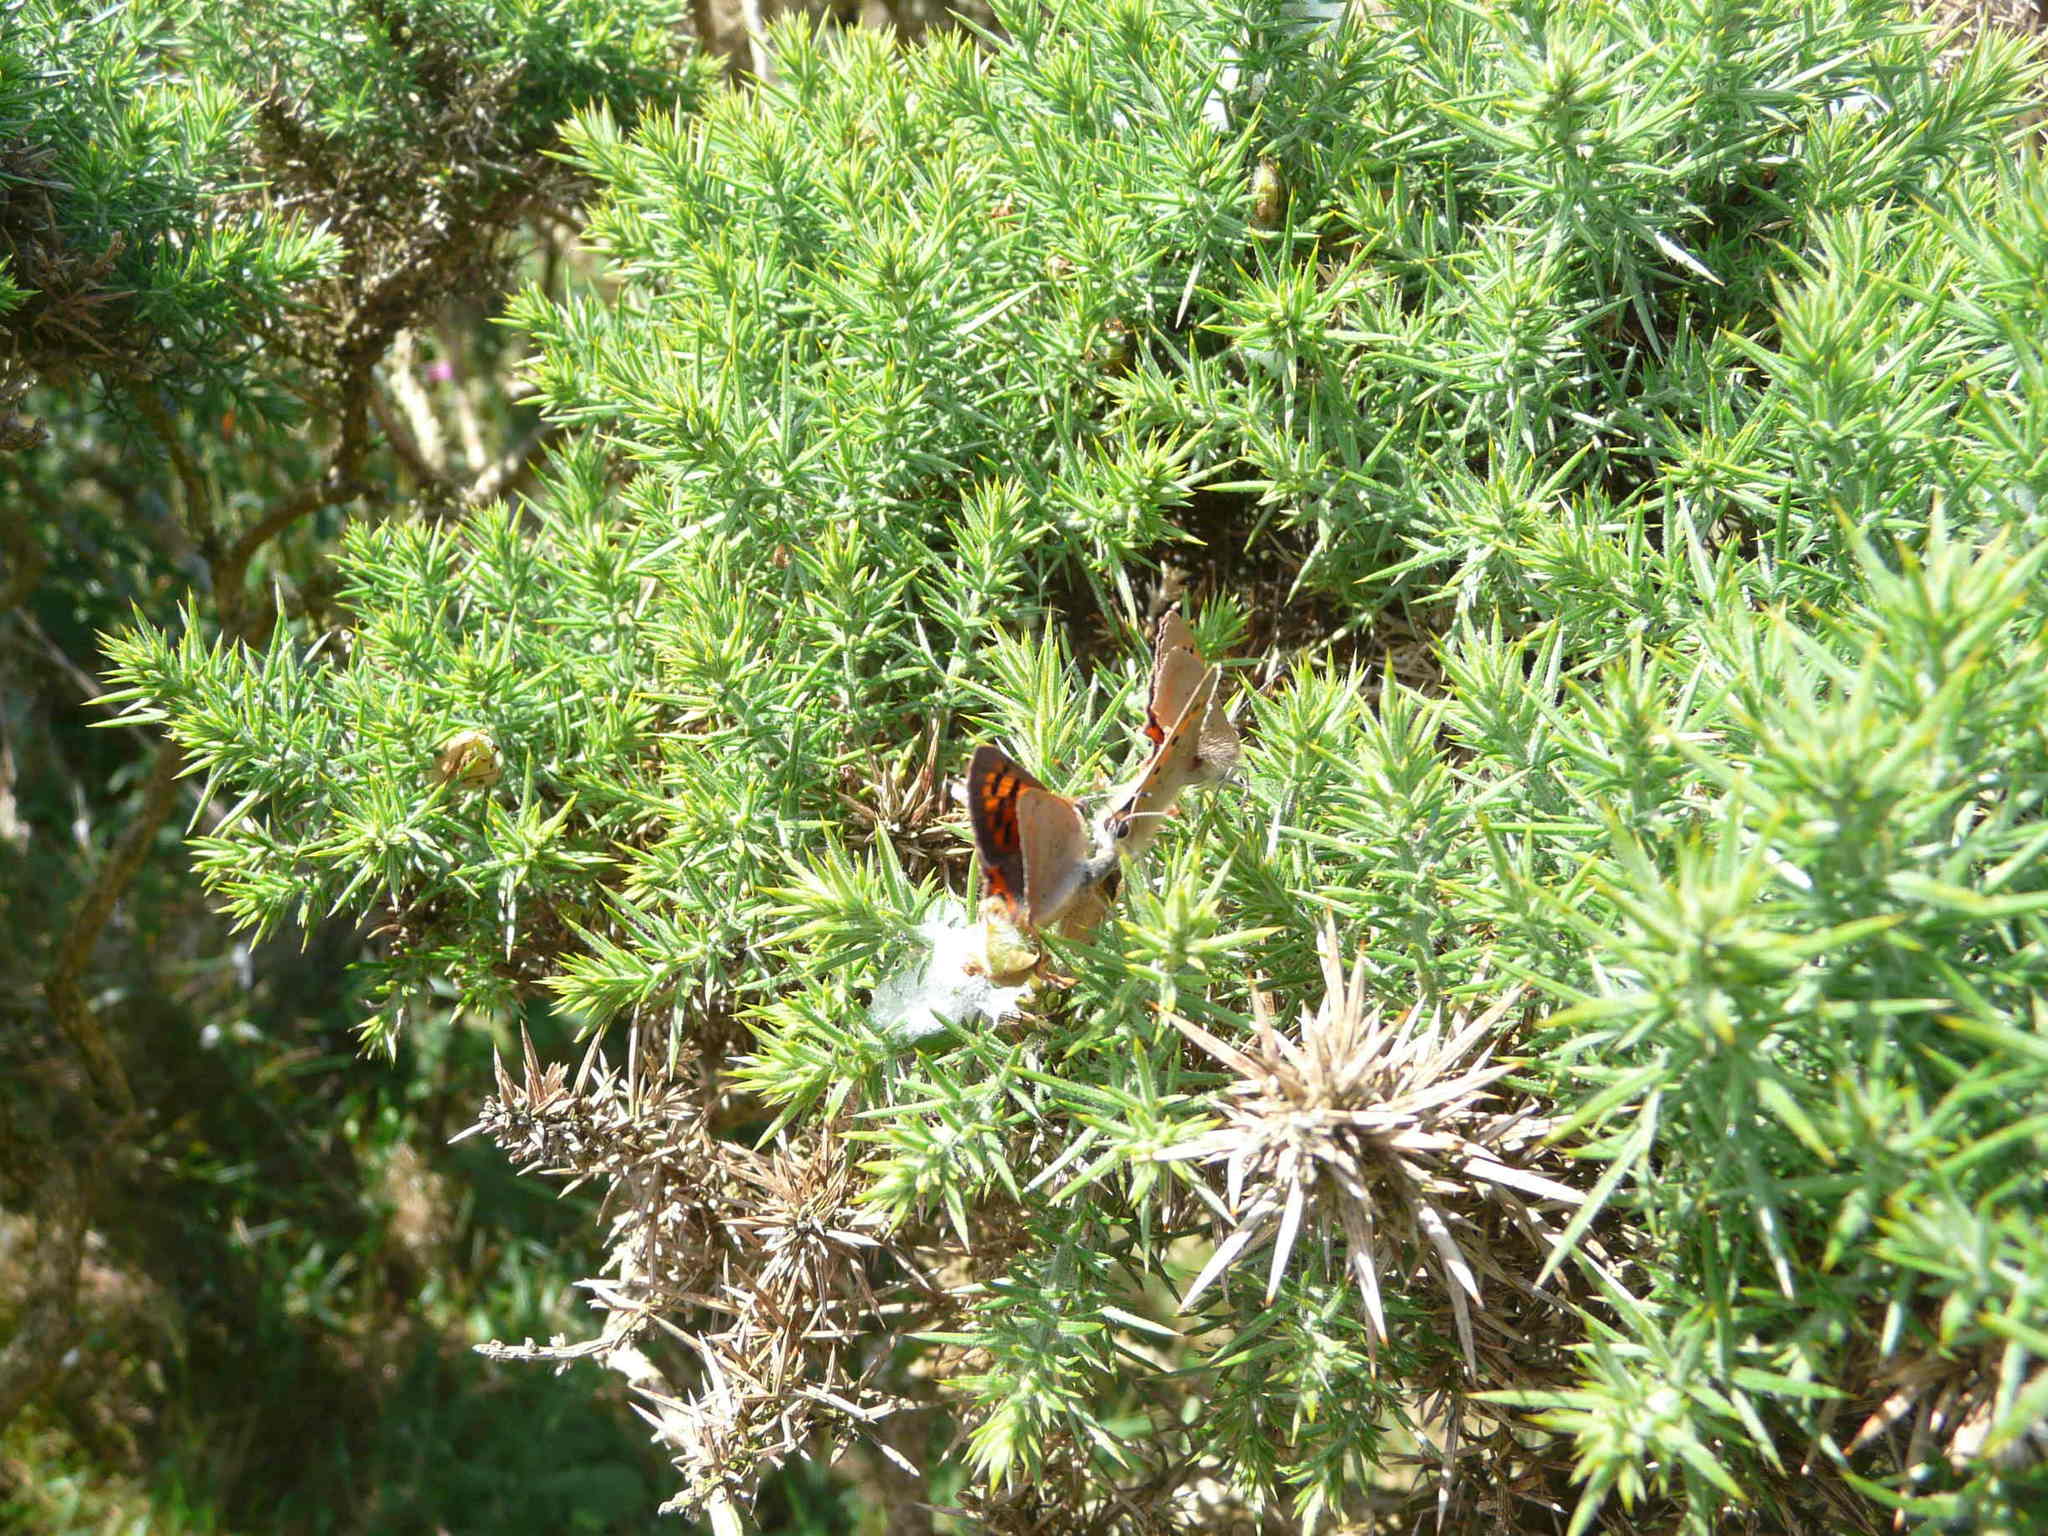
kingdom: Animalia
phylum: Arthropoda
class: Insecta
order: Lepidoptera
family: Lycaenidae
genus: Lycaena
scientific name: Lycaena phlaeas
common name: Small copper
